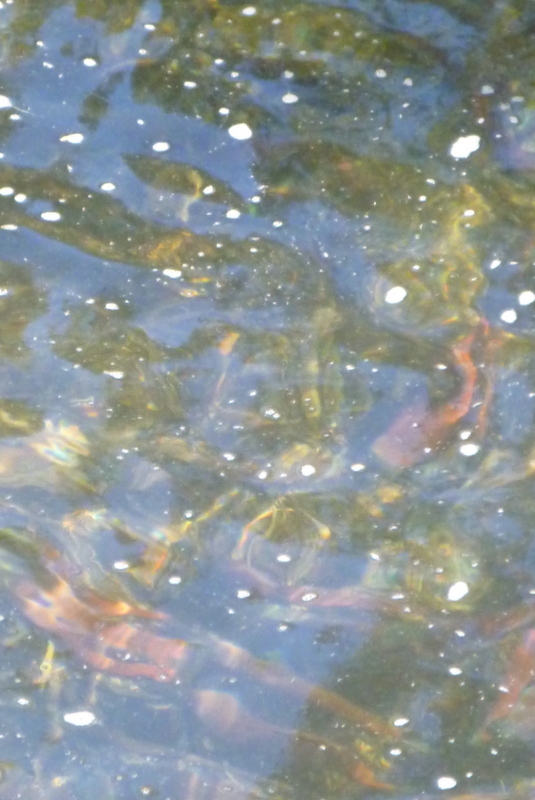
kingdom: Animalia
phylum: Chordata
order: Salmoniformes
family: Salmonidae
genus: Oncorhynchus
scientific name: Oncorhynchus nerka
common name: Sockeye salmon
